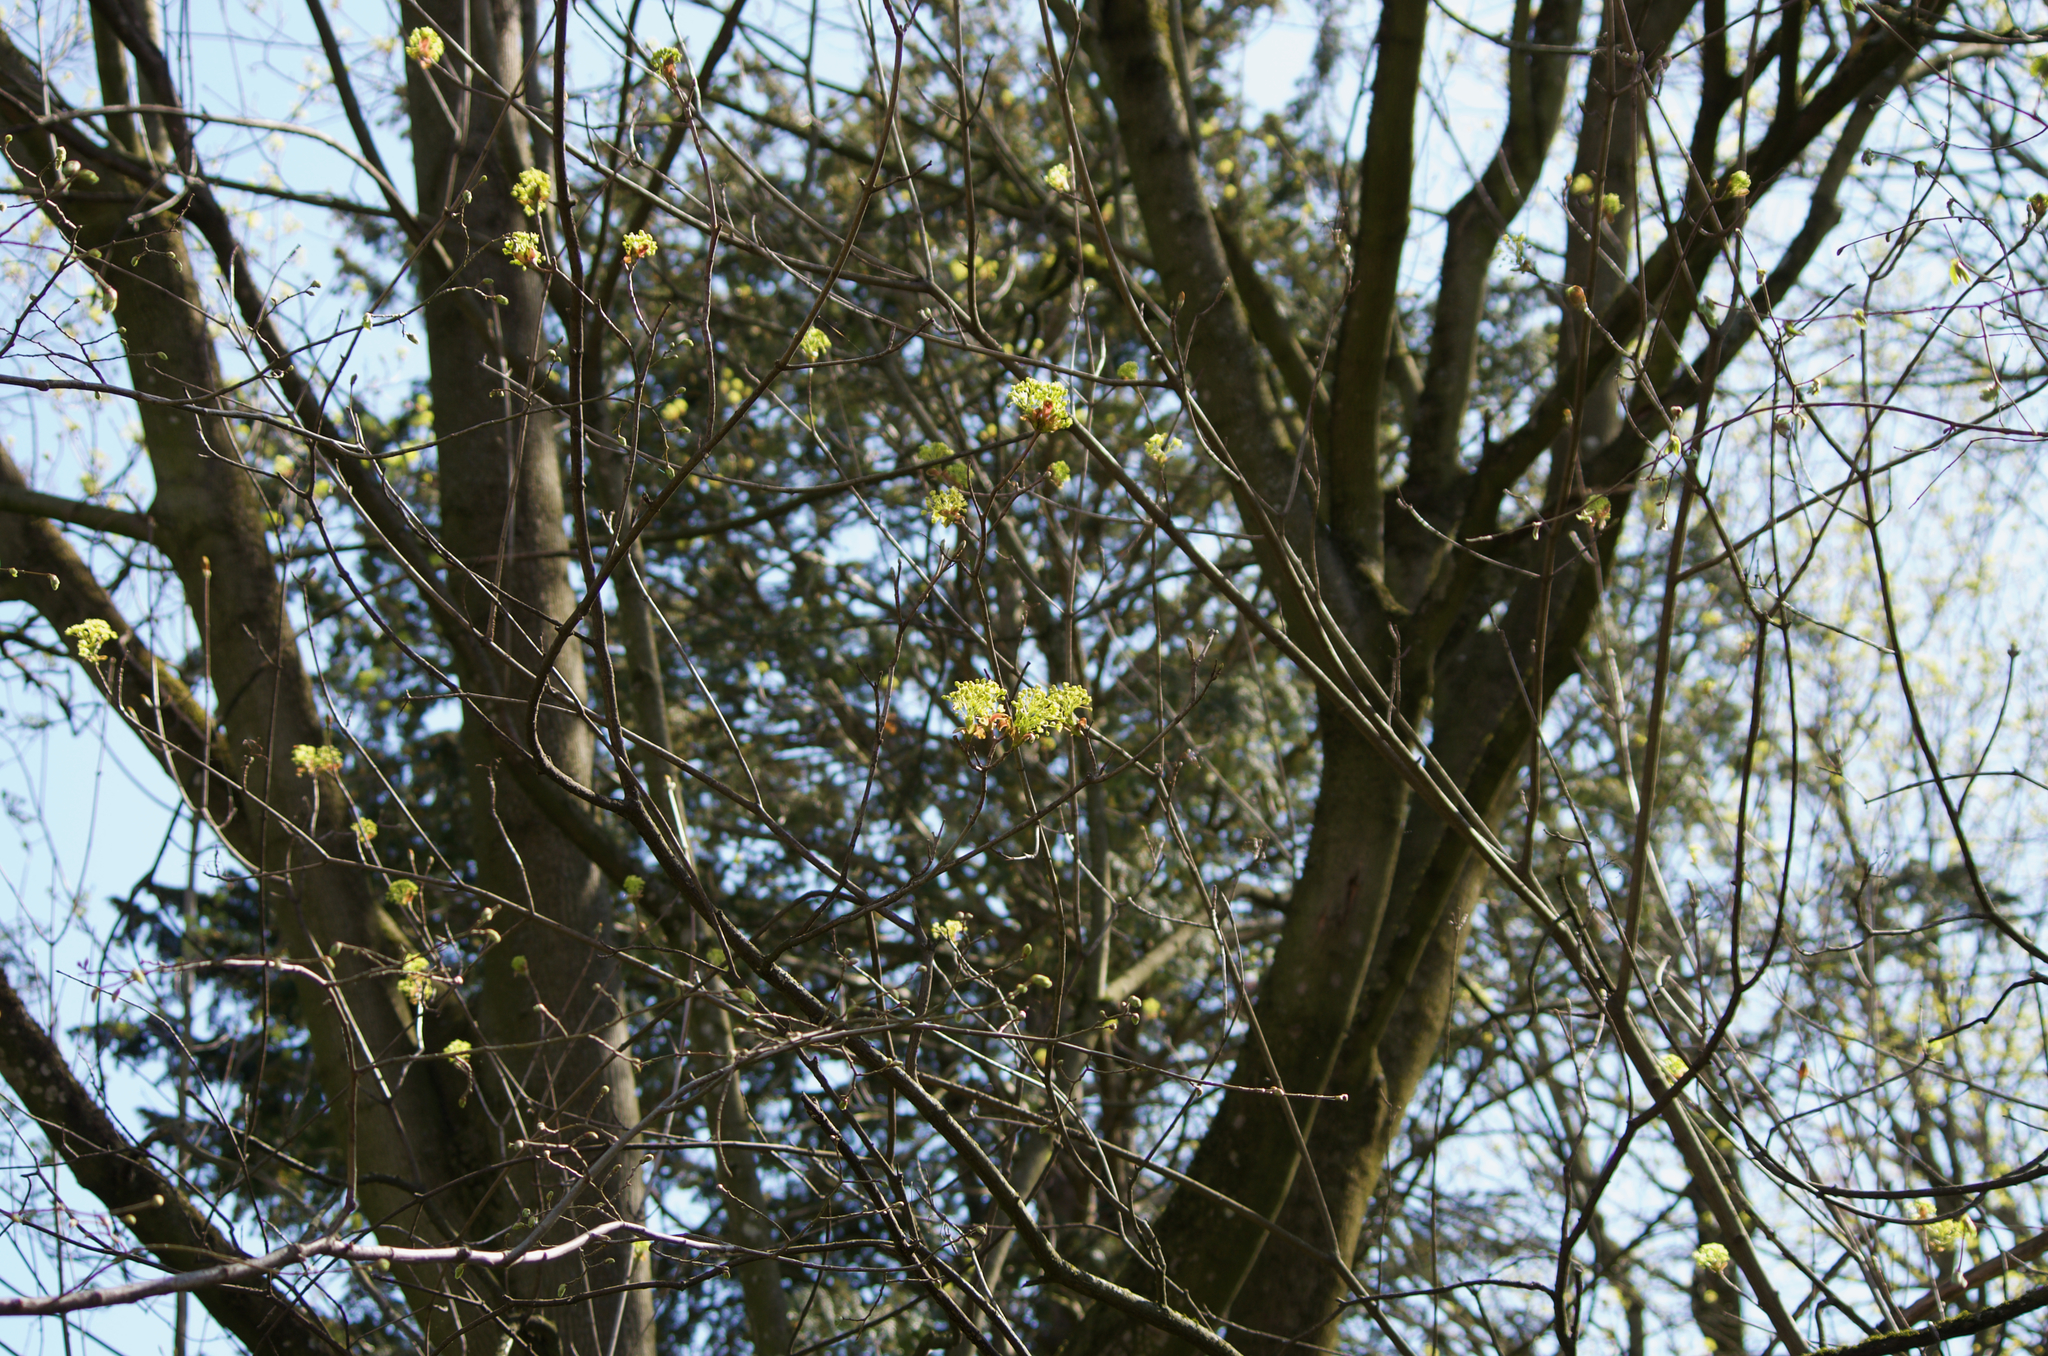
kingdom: Plantae
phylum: Tracheophyta
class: Magnoliopsida
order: Sapindales
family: Sapindaceae
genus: Acer
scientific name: Acer platanoides
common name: Norway maple
